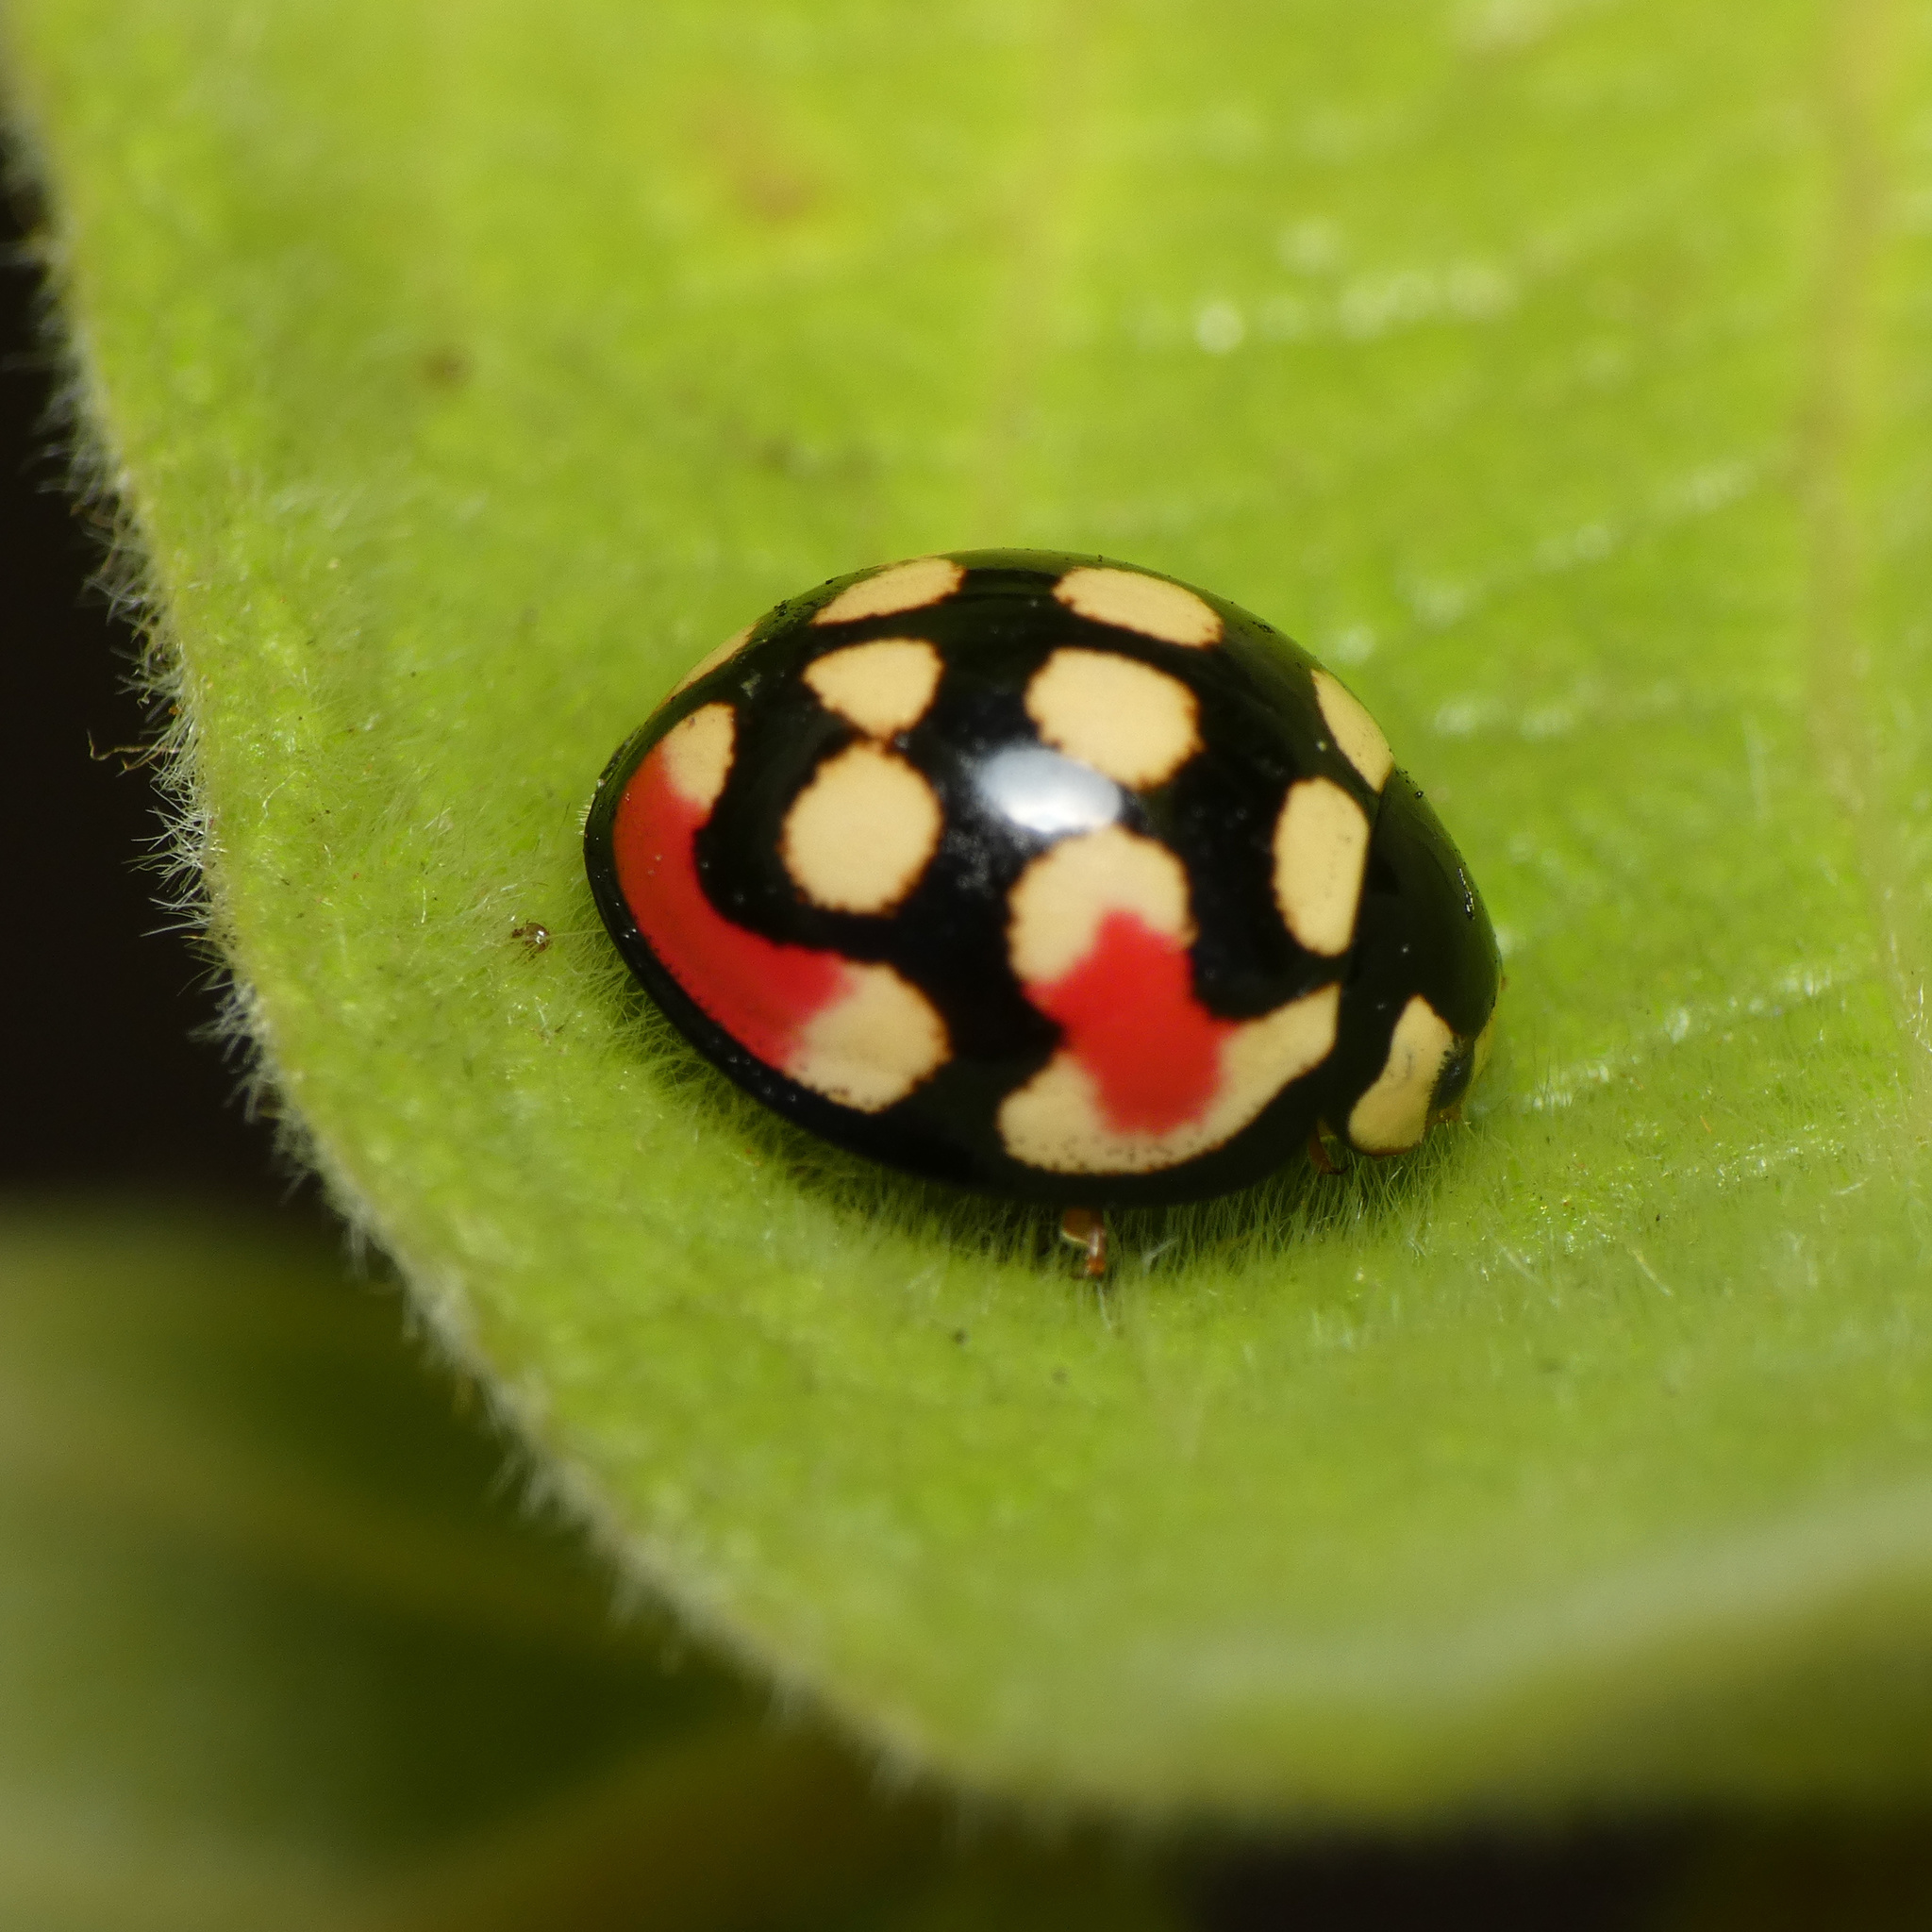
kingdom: Animalia
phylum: Arthropoda
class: Insecta
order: Coleoptera
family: Coccinellidae
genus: Cheilomenes
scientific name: Cheilomenes sulphurea
